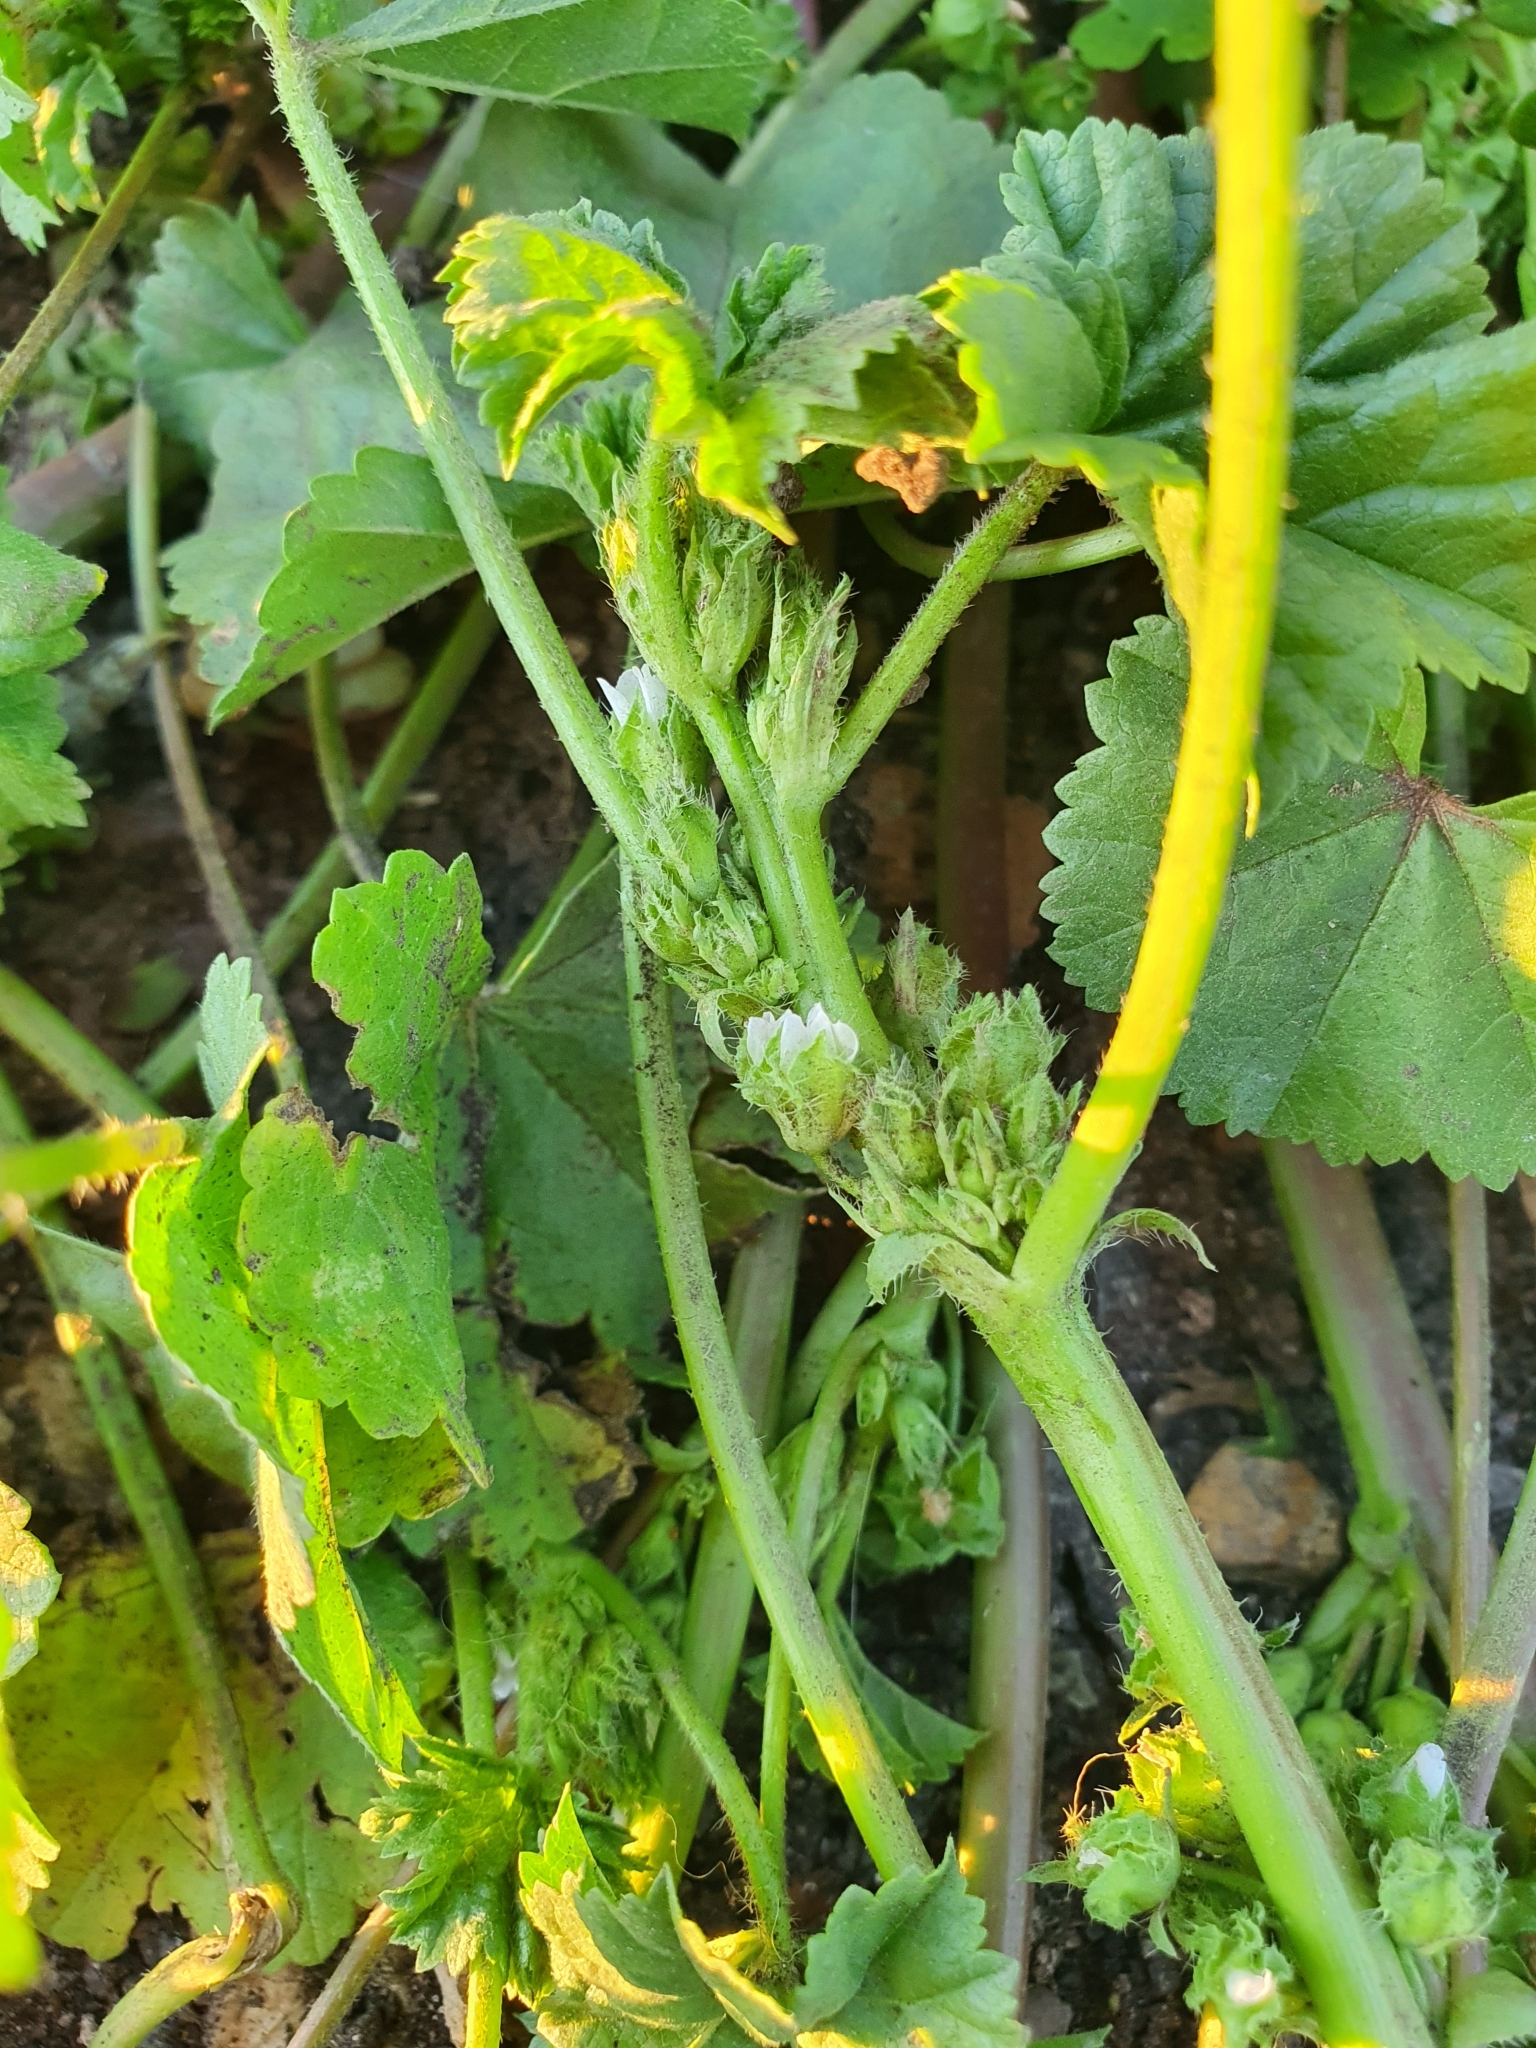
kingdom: Plantae
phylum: Tracheophyta
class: Magnoliopsida
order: Malvales
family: Malvaceae
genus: Malva
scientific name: Malva pusilla
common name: Small mallow
